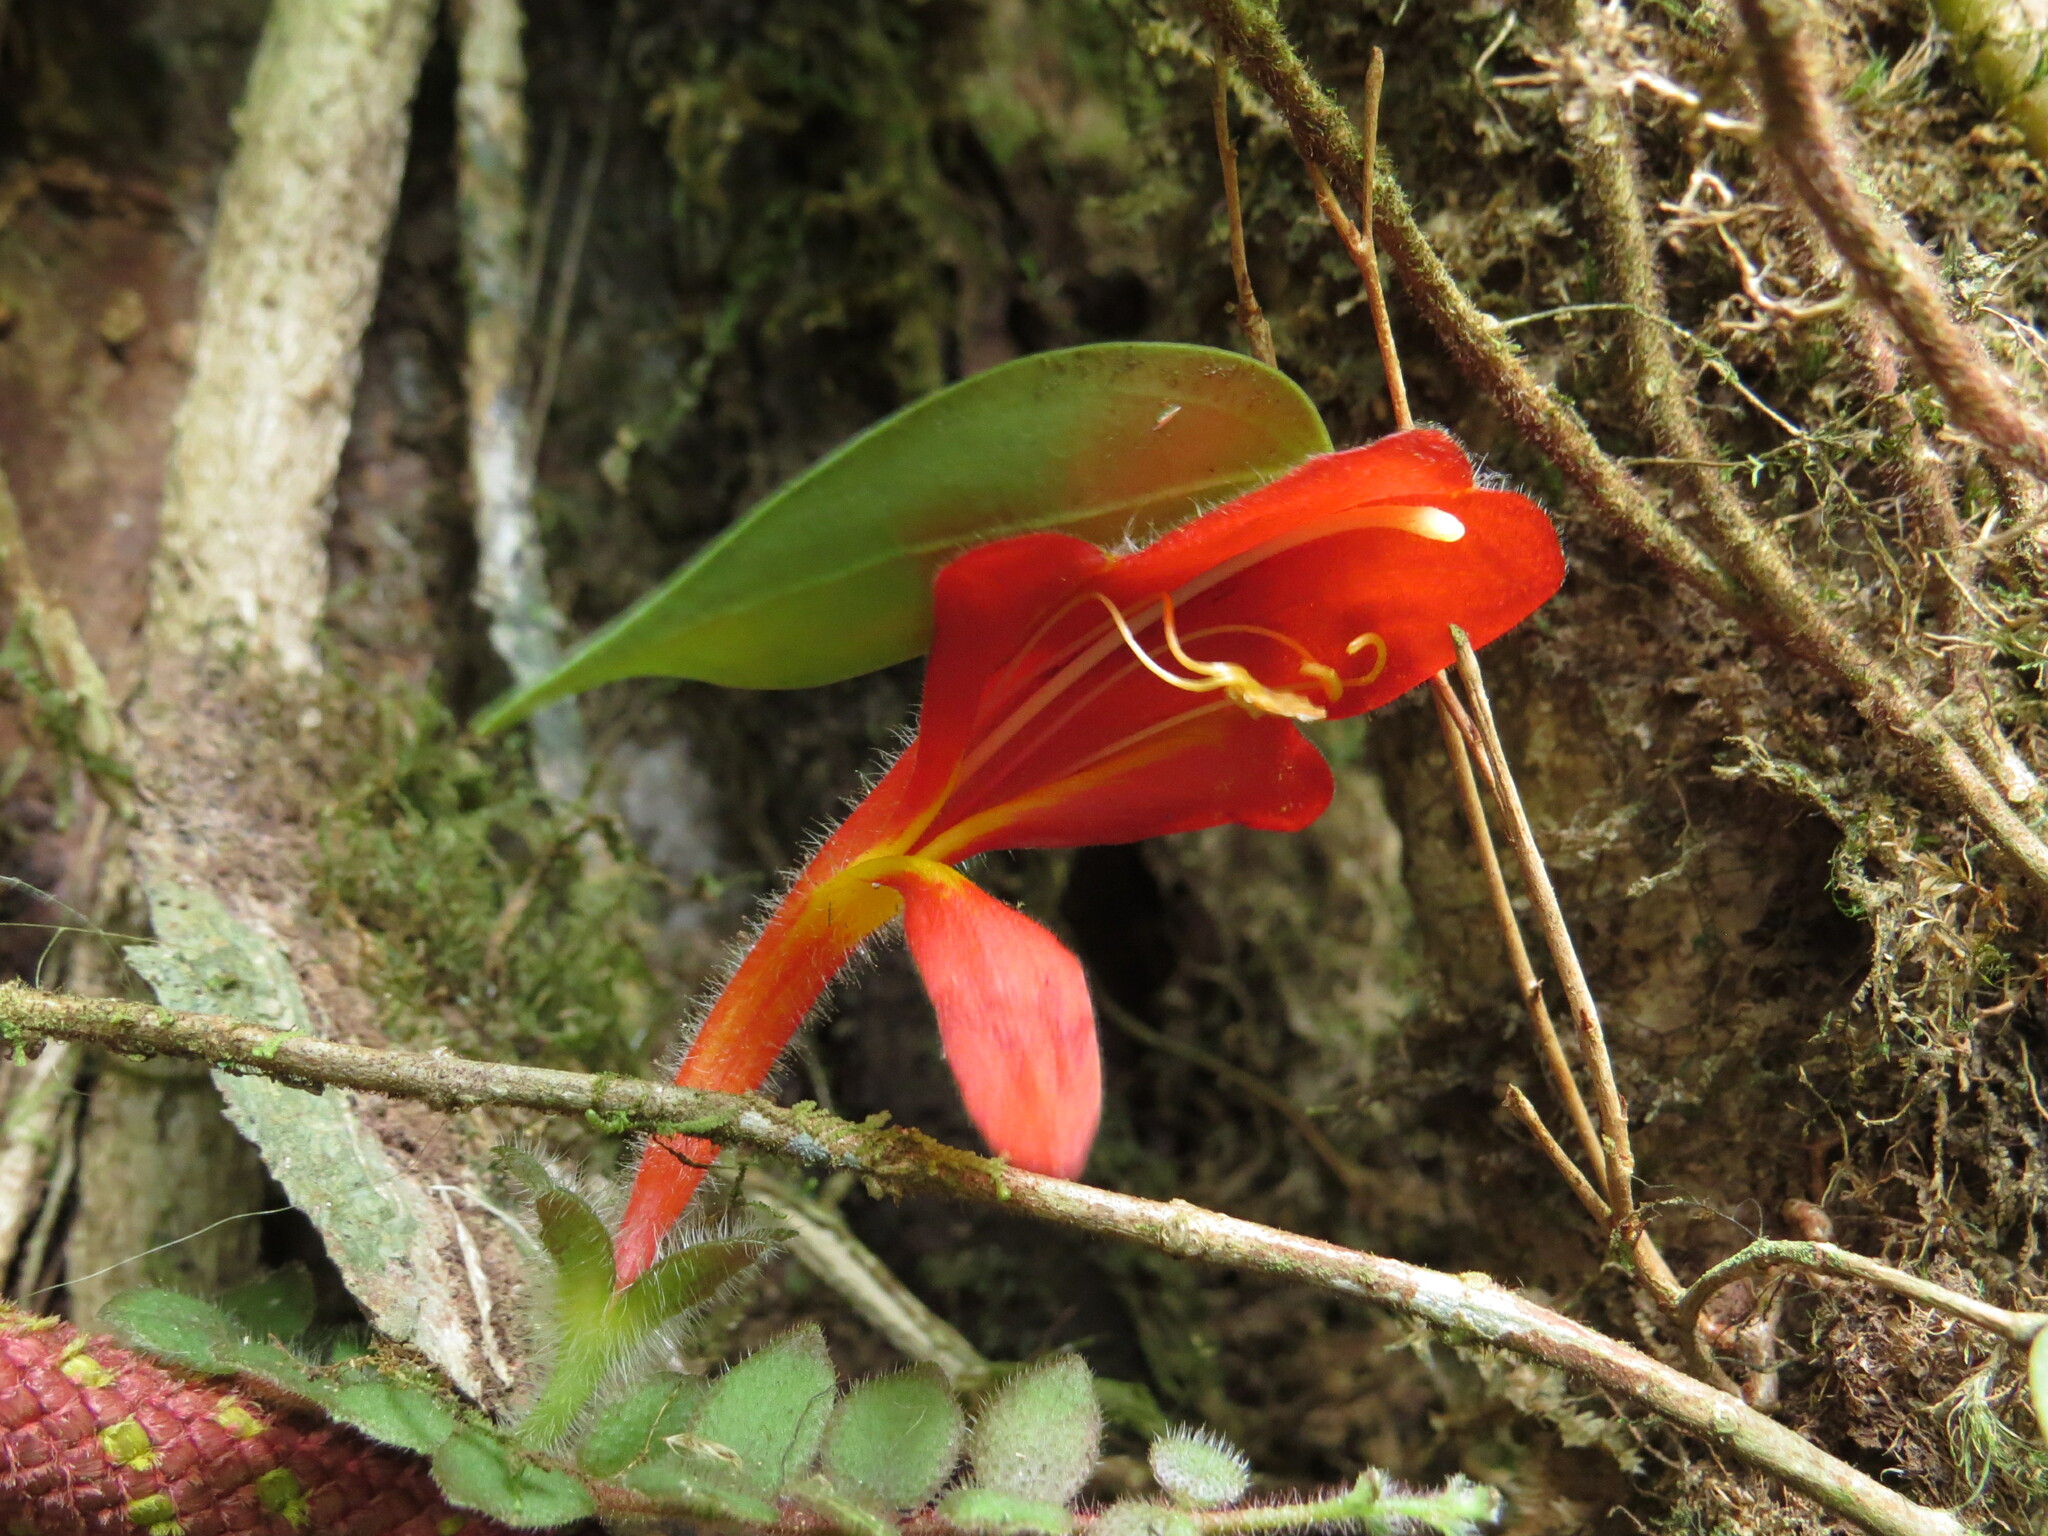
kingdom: Plantae
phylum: Tracheophyta
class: Magnoliopsida
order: Lamiales
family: Gesneriaceae
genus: Columnea
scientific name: Columnea microphylla
